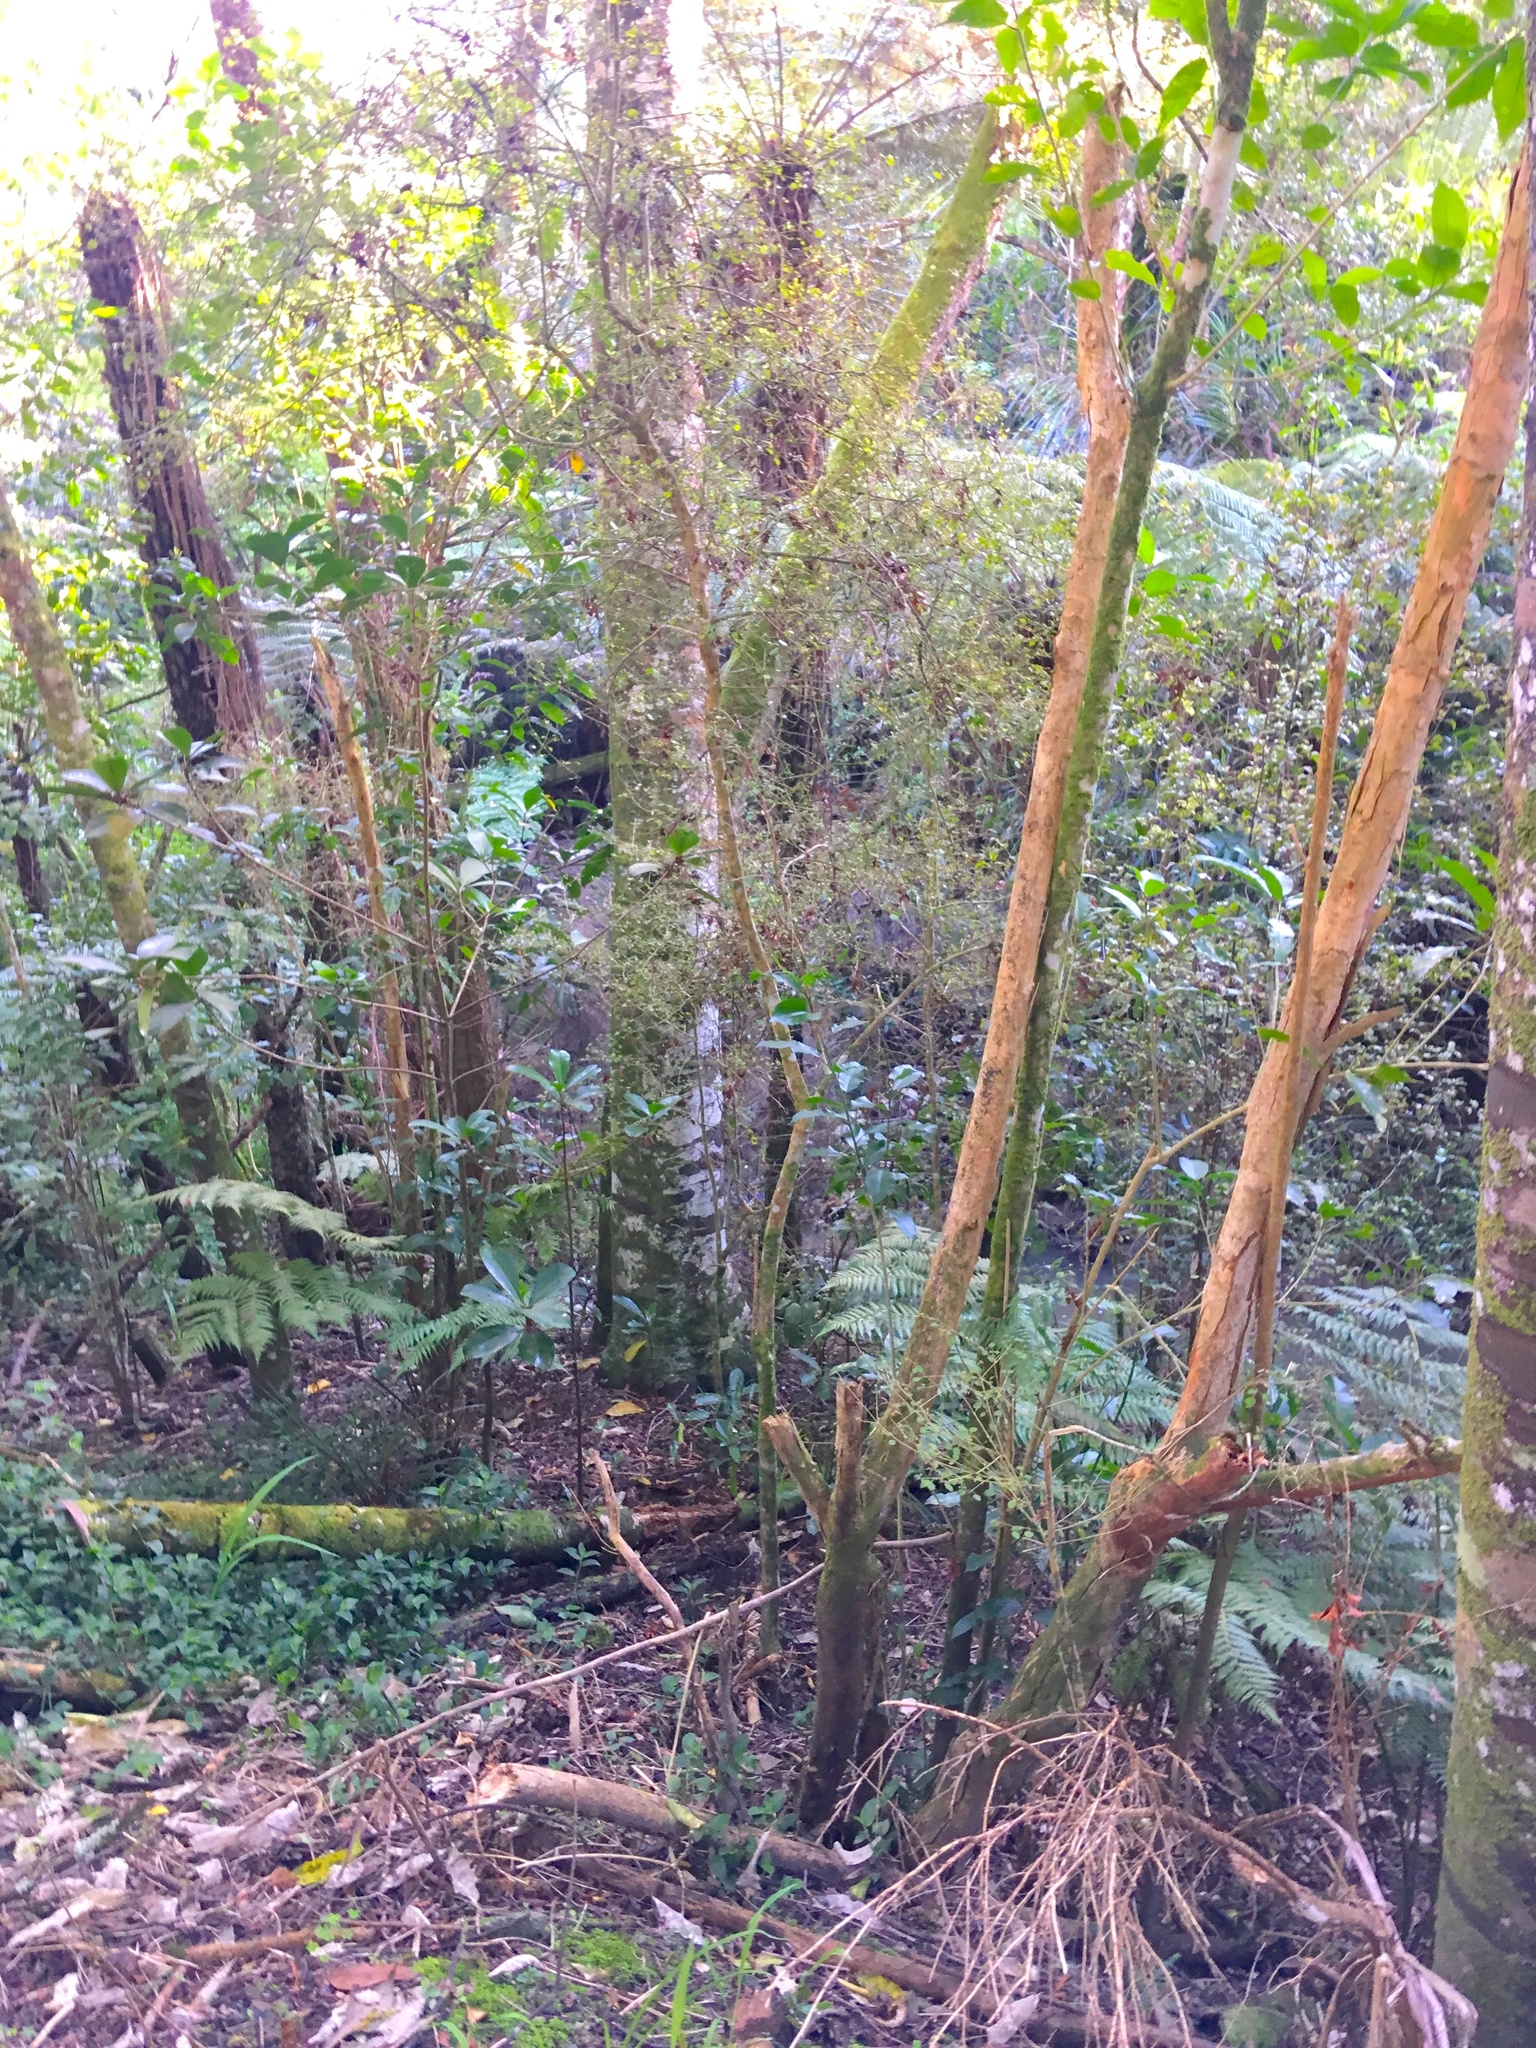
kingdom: Plantae
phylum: Tracheophyta
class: Magnoliopsida
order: Cucurbitales
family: Corynocarpaceae
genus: Corynocarpus
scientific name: Corynocarpus laevigatus
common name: New zealand laurel
